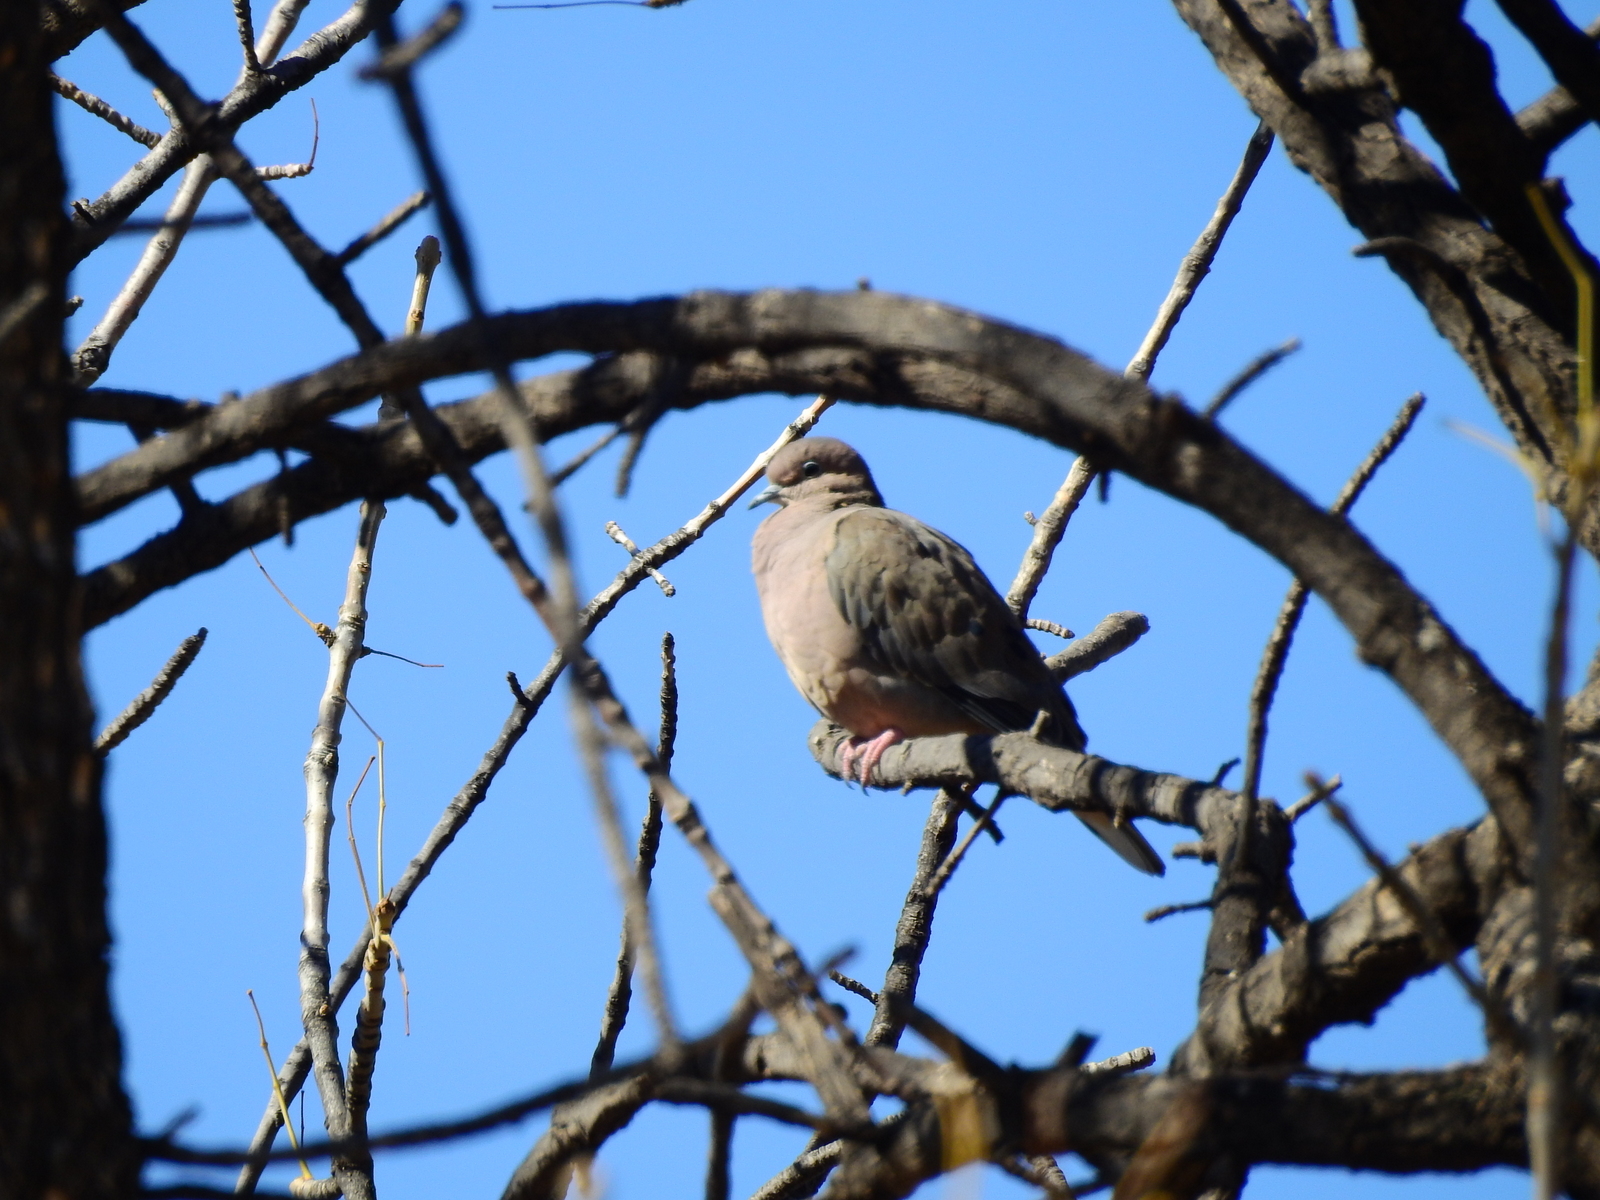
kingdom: Animalia
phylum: Chordata
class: Aves
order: Columbiformes
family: Columbidae
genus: Zenaida
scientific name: Zenaida auriculata
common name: Eared dove
